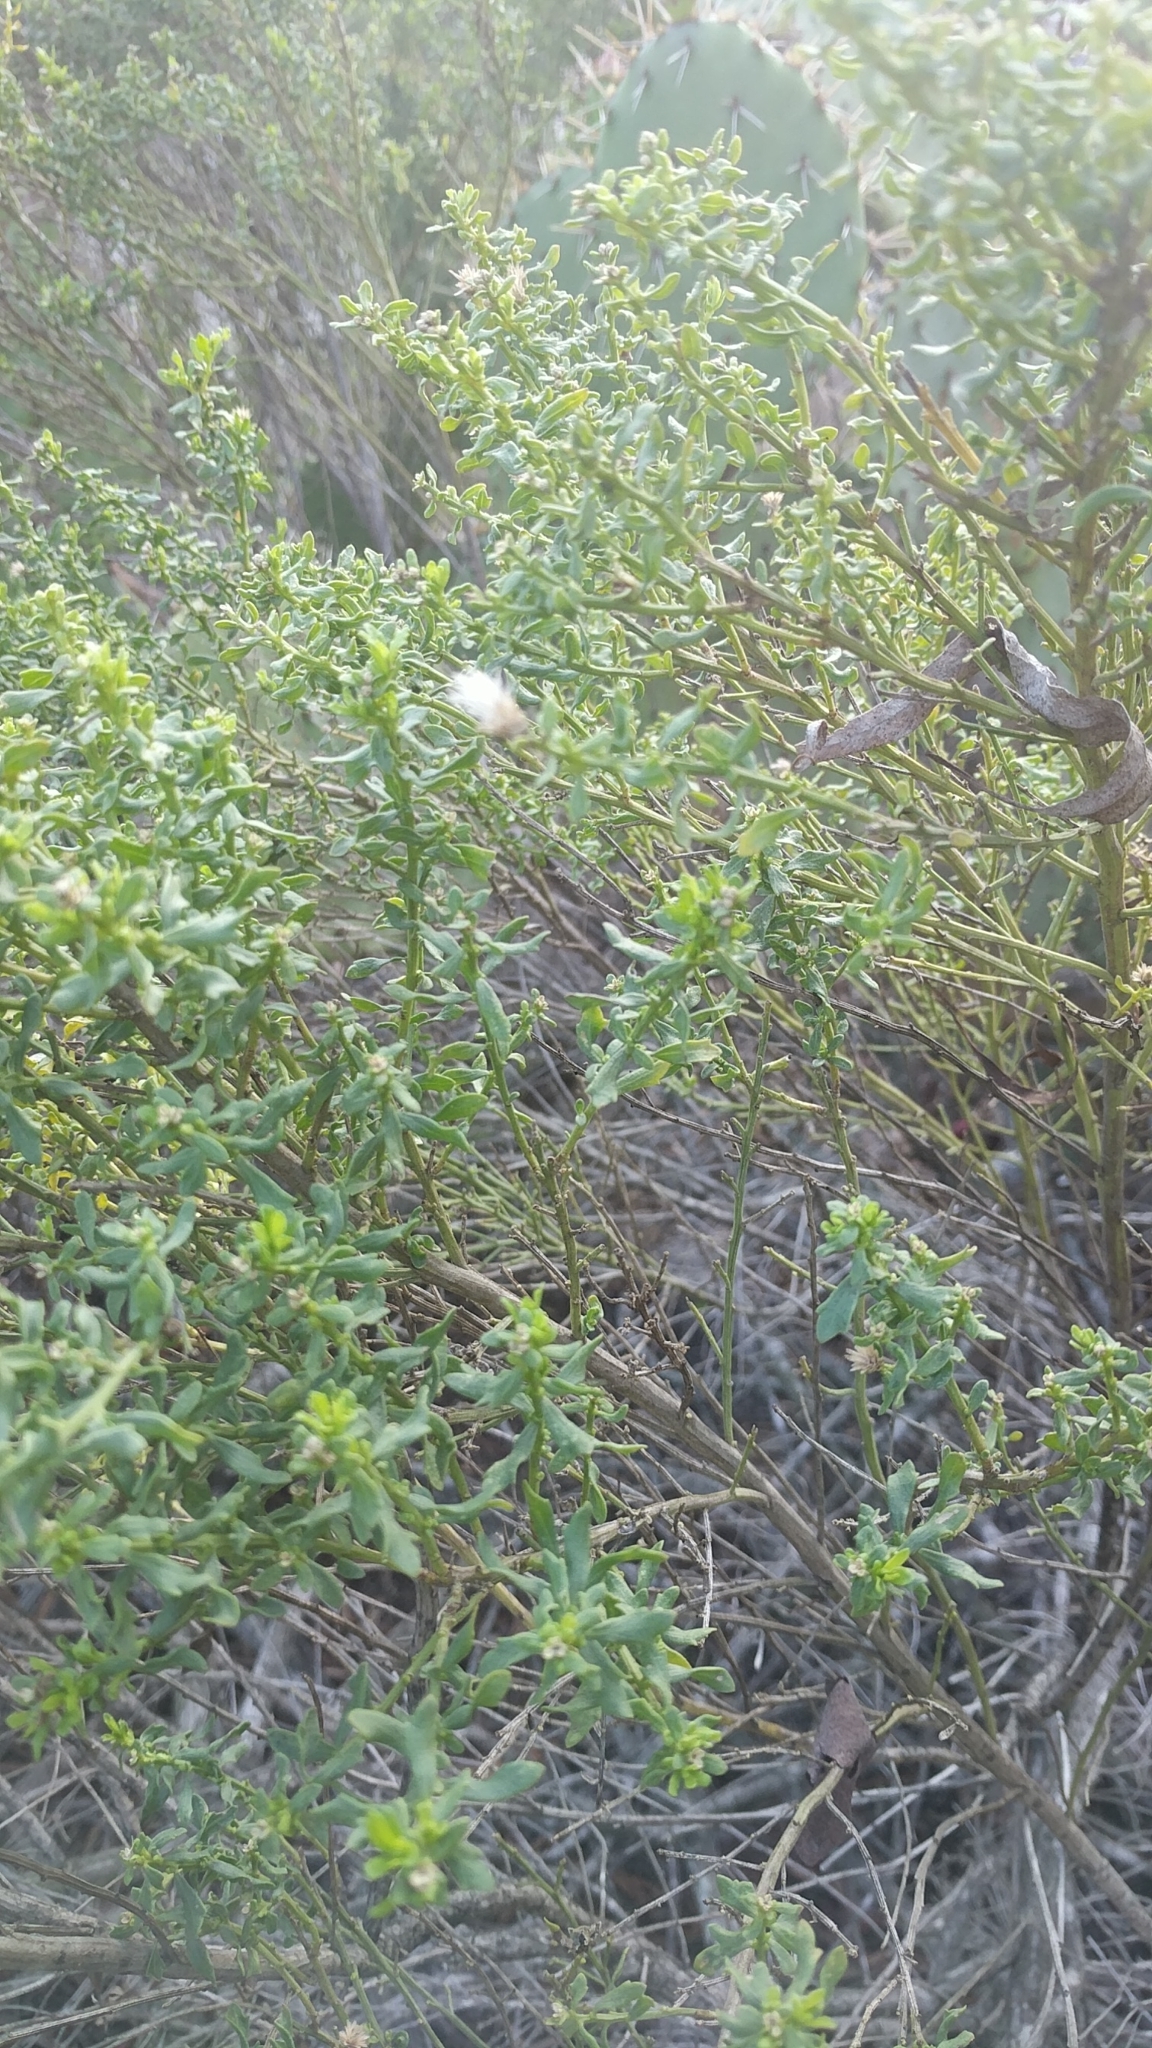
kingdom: Plantae
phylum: Tracheophyta
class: Magnoliopsida
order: Asterales
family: Asteraceae
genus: Baccharis
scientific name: Baccharis pilularis
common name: Coyotebrush
